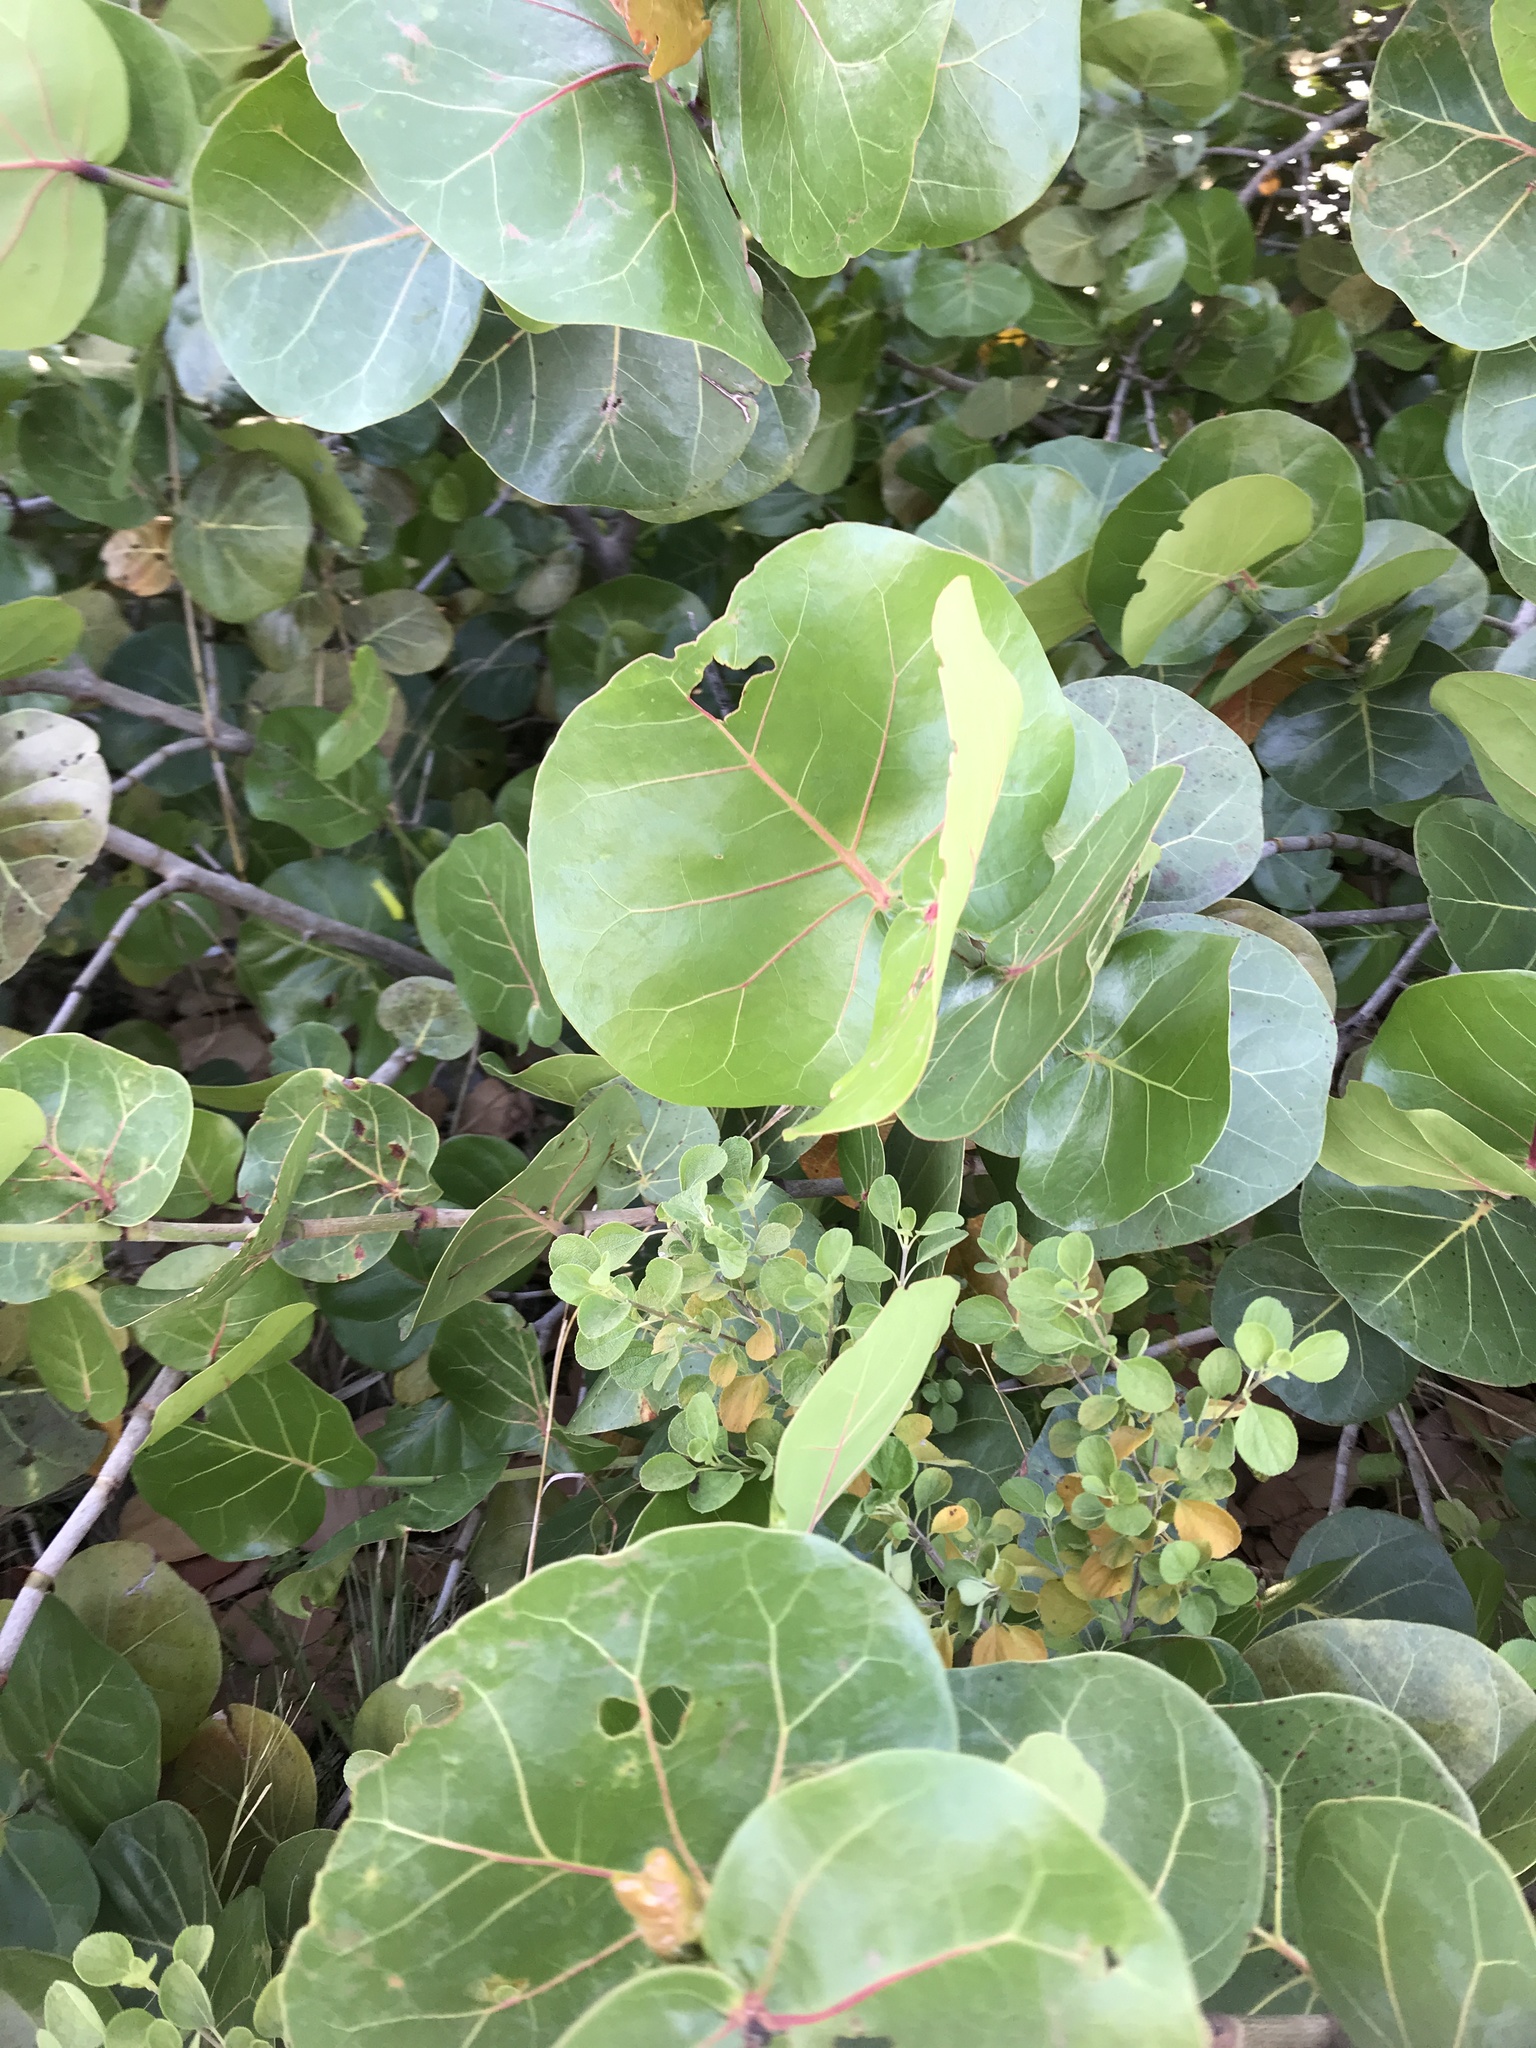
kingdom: Plantae
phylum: Tracheophyta
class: Magnoliopsida
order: Caryophyllales
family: Polygonaceae
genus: Coccoloba
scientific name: Coccoloba uvifera
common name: Seagrape
